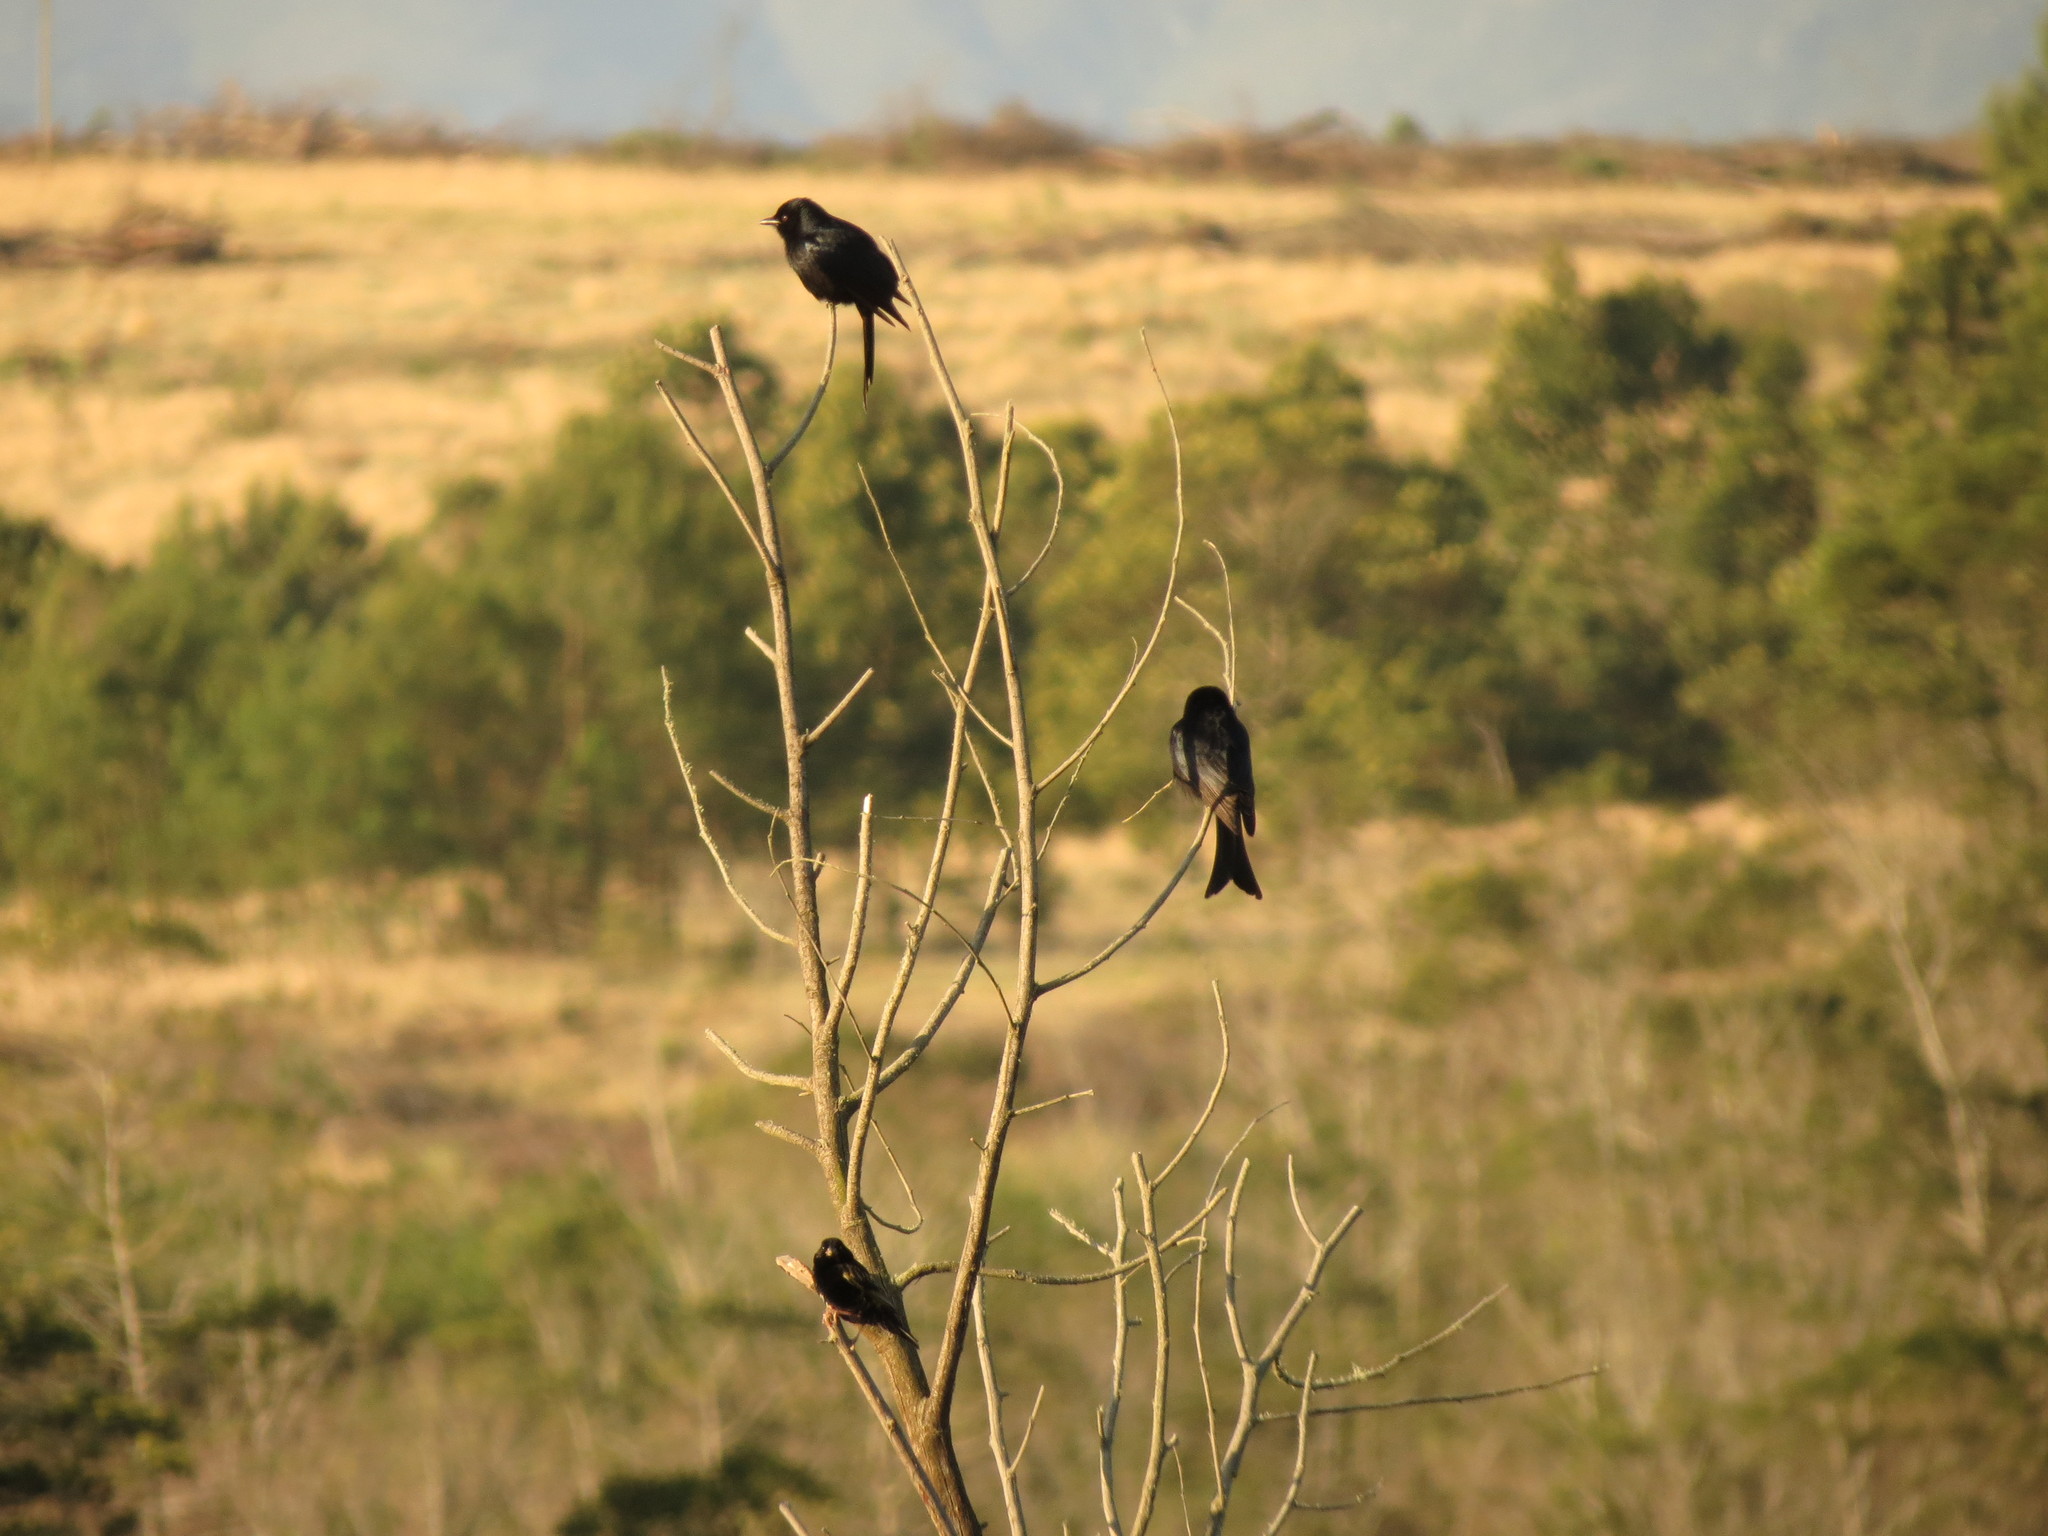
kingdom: Animalia
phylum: Chordata
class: Aves
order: Passeriformes
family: Dicruridae
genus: Dicrurus
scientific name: Dicrurus adsimilis
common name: Fork-tailed drongo
